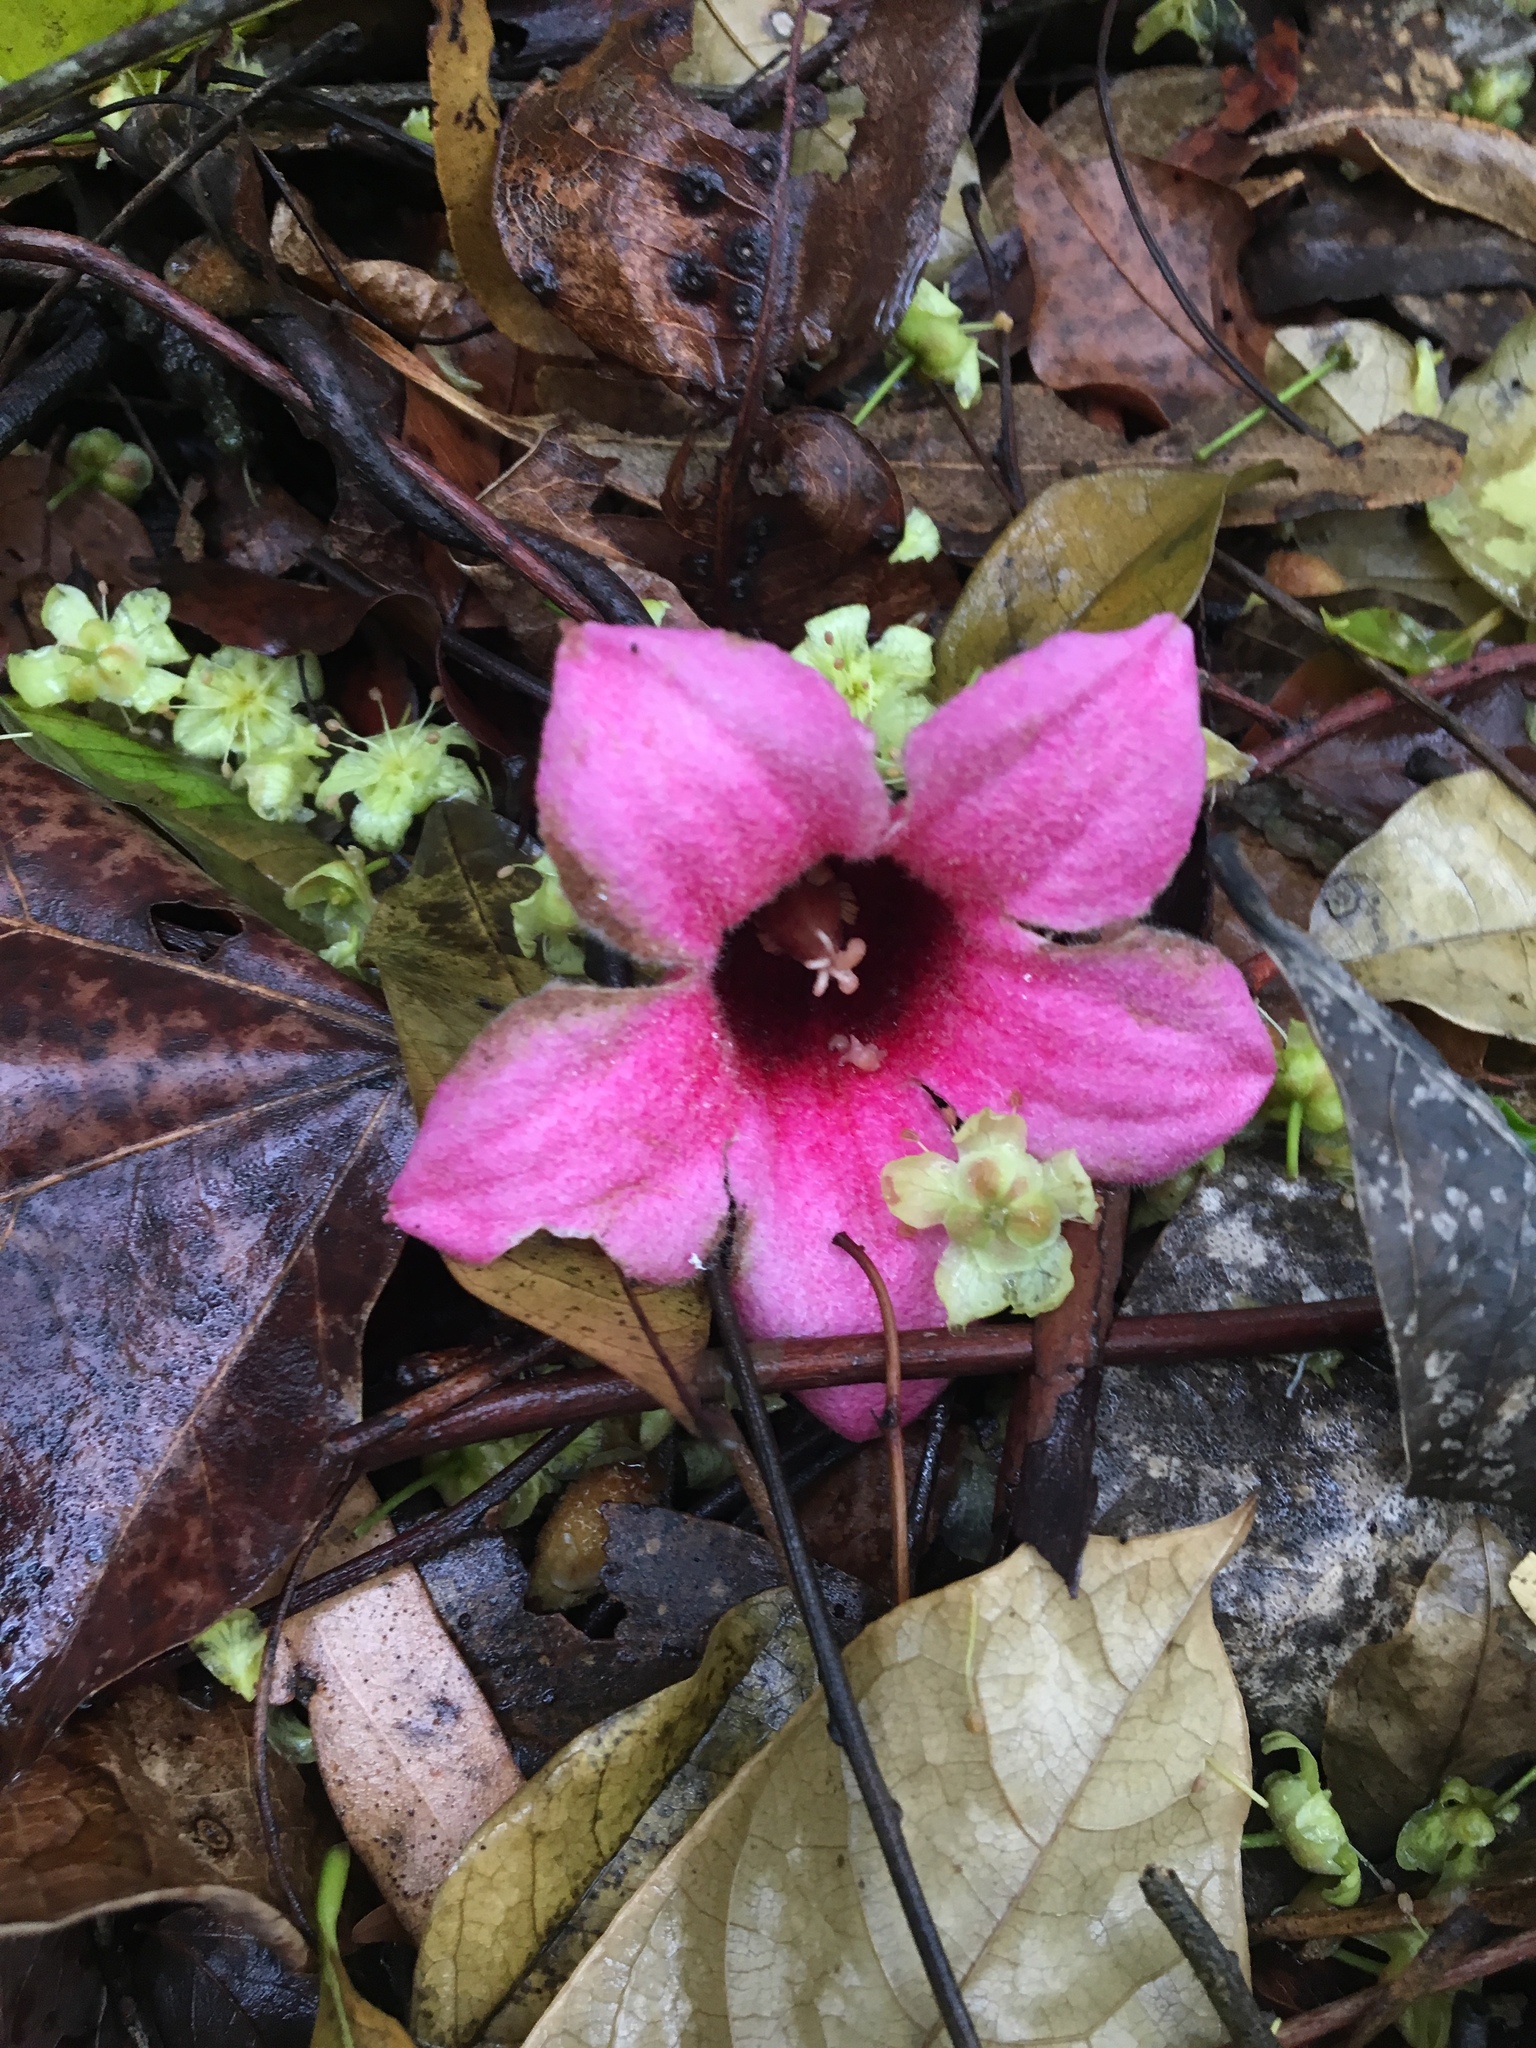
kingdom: Plantae
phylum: Tracheophyta
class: Magnoliopsida
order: Malvales
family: Malvaceae
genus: Brachychiton
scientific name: Brachychiton discolor
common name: Queensland lacebark
